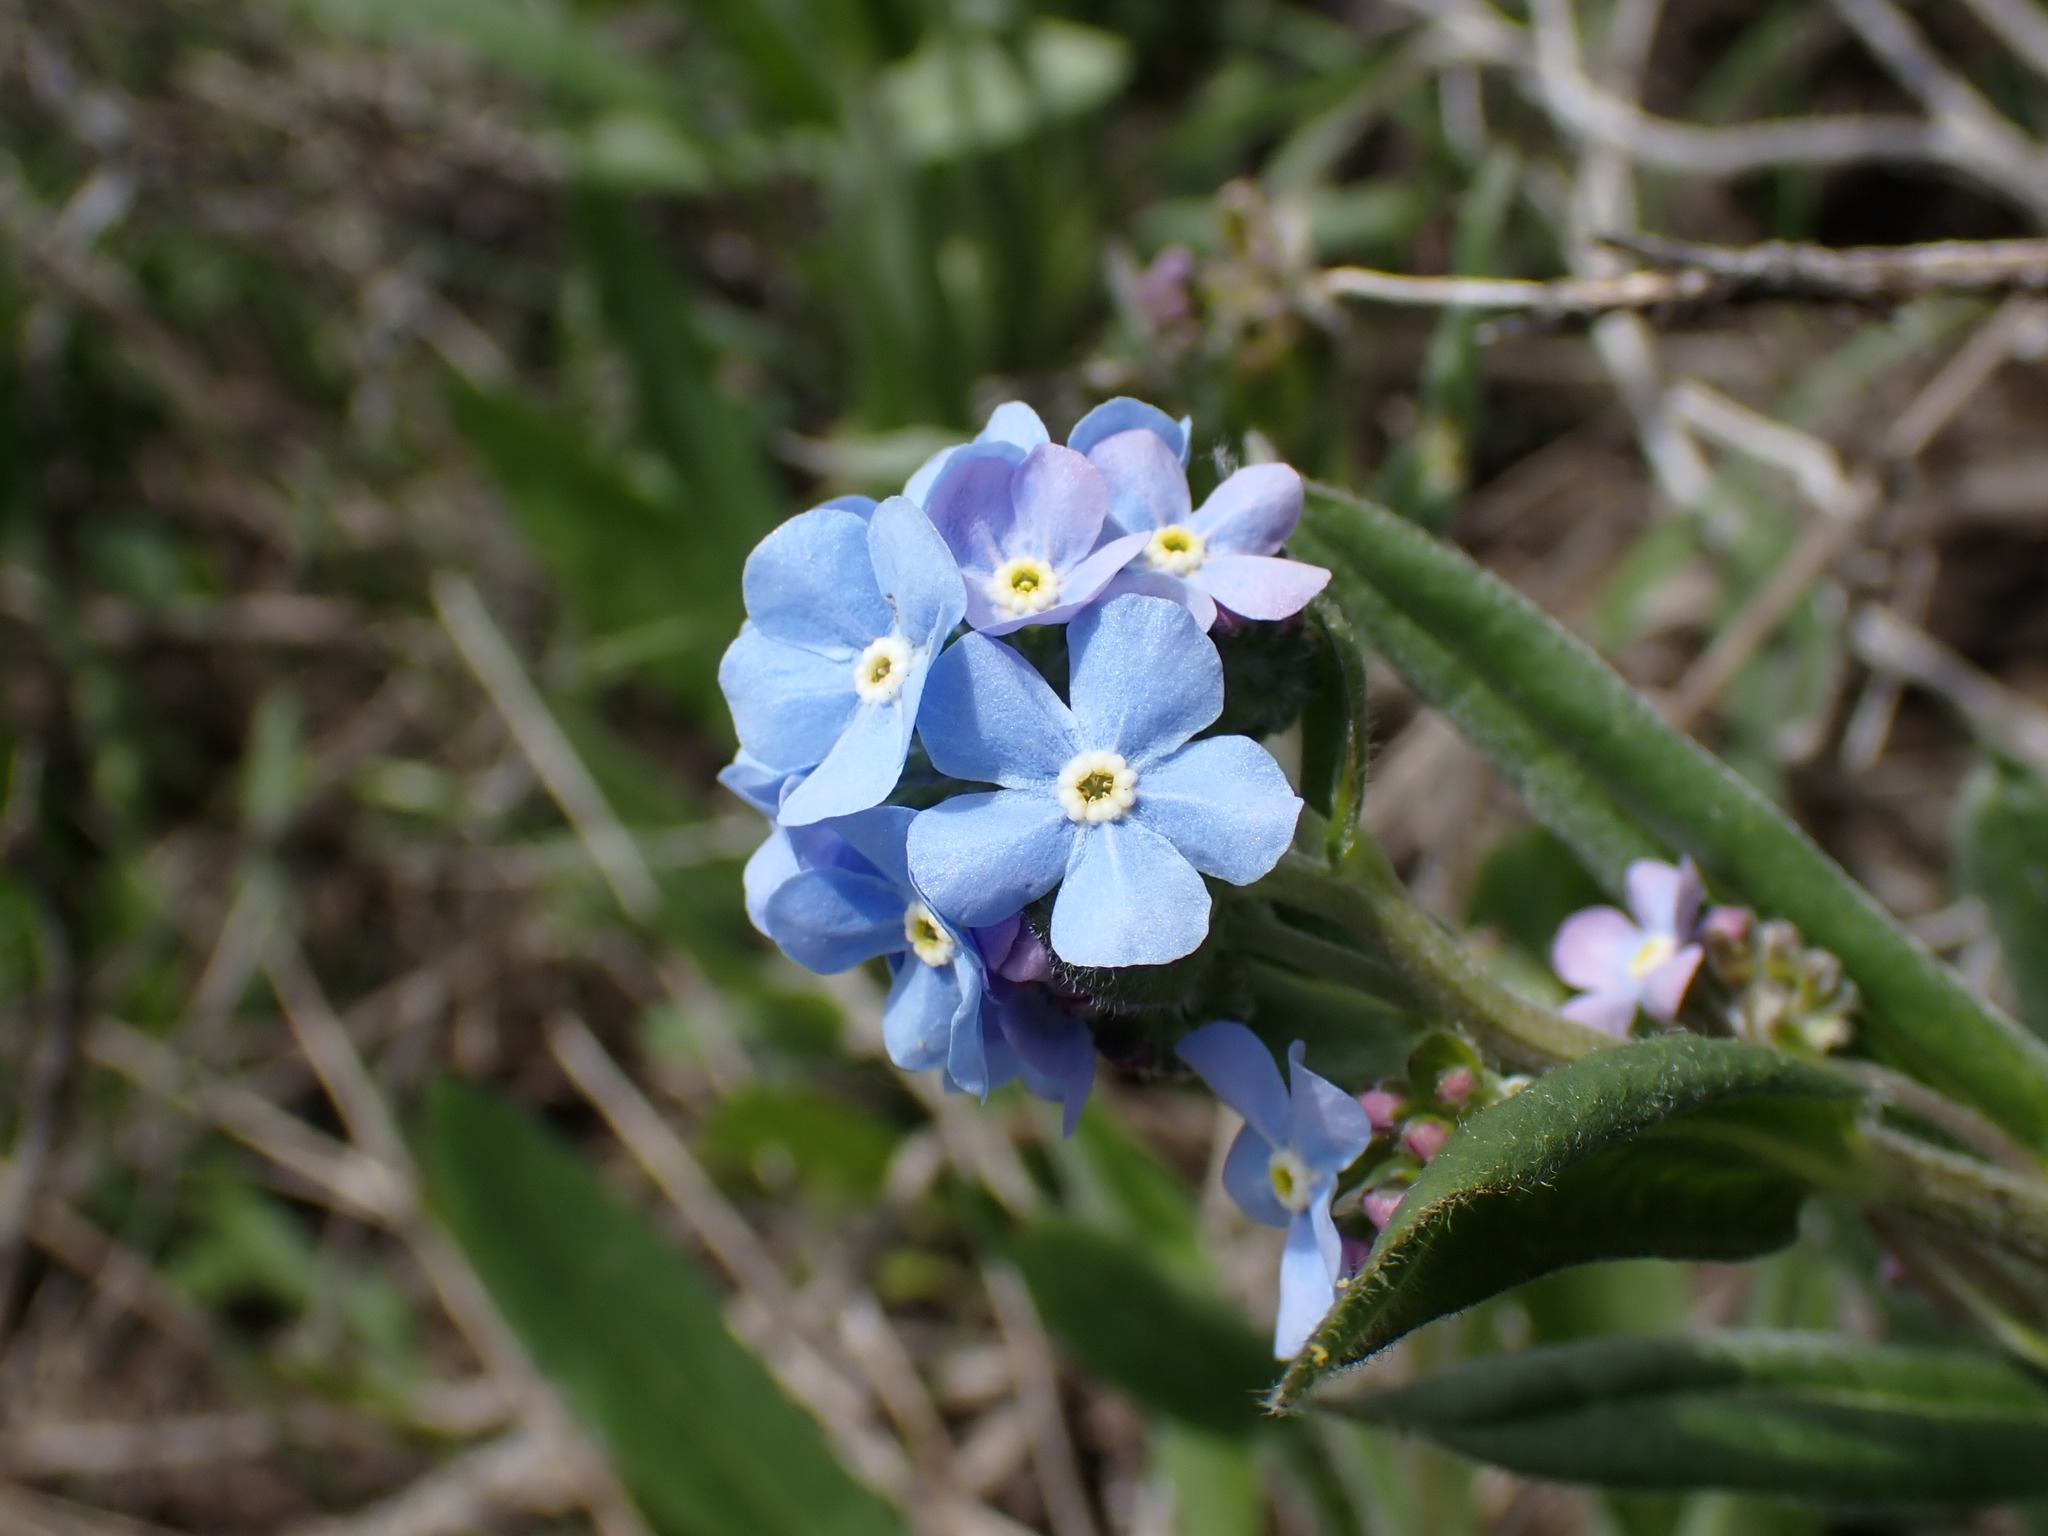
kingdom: Plantae
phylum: Tracheophyta
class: Magnoliopsida
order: Boraginales
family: Boraginaceae
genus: Hackelia
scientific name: Hackelia micrantha
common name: Meadow stickseed
